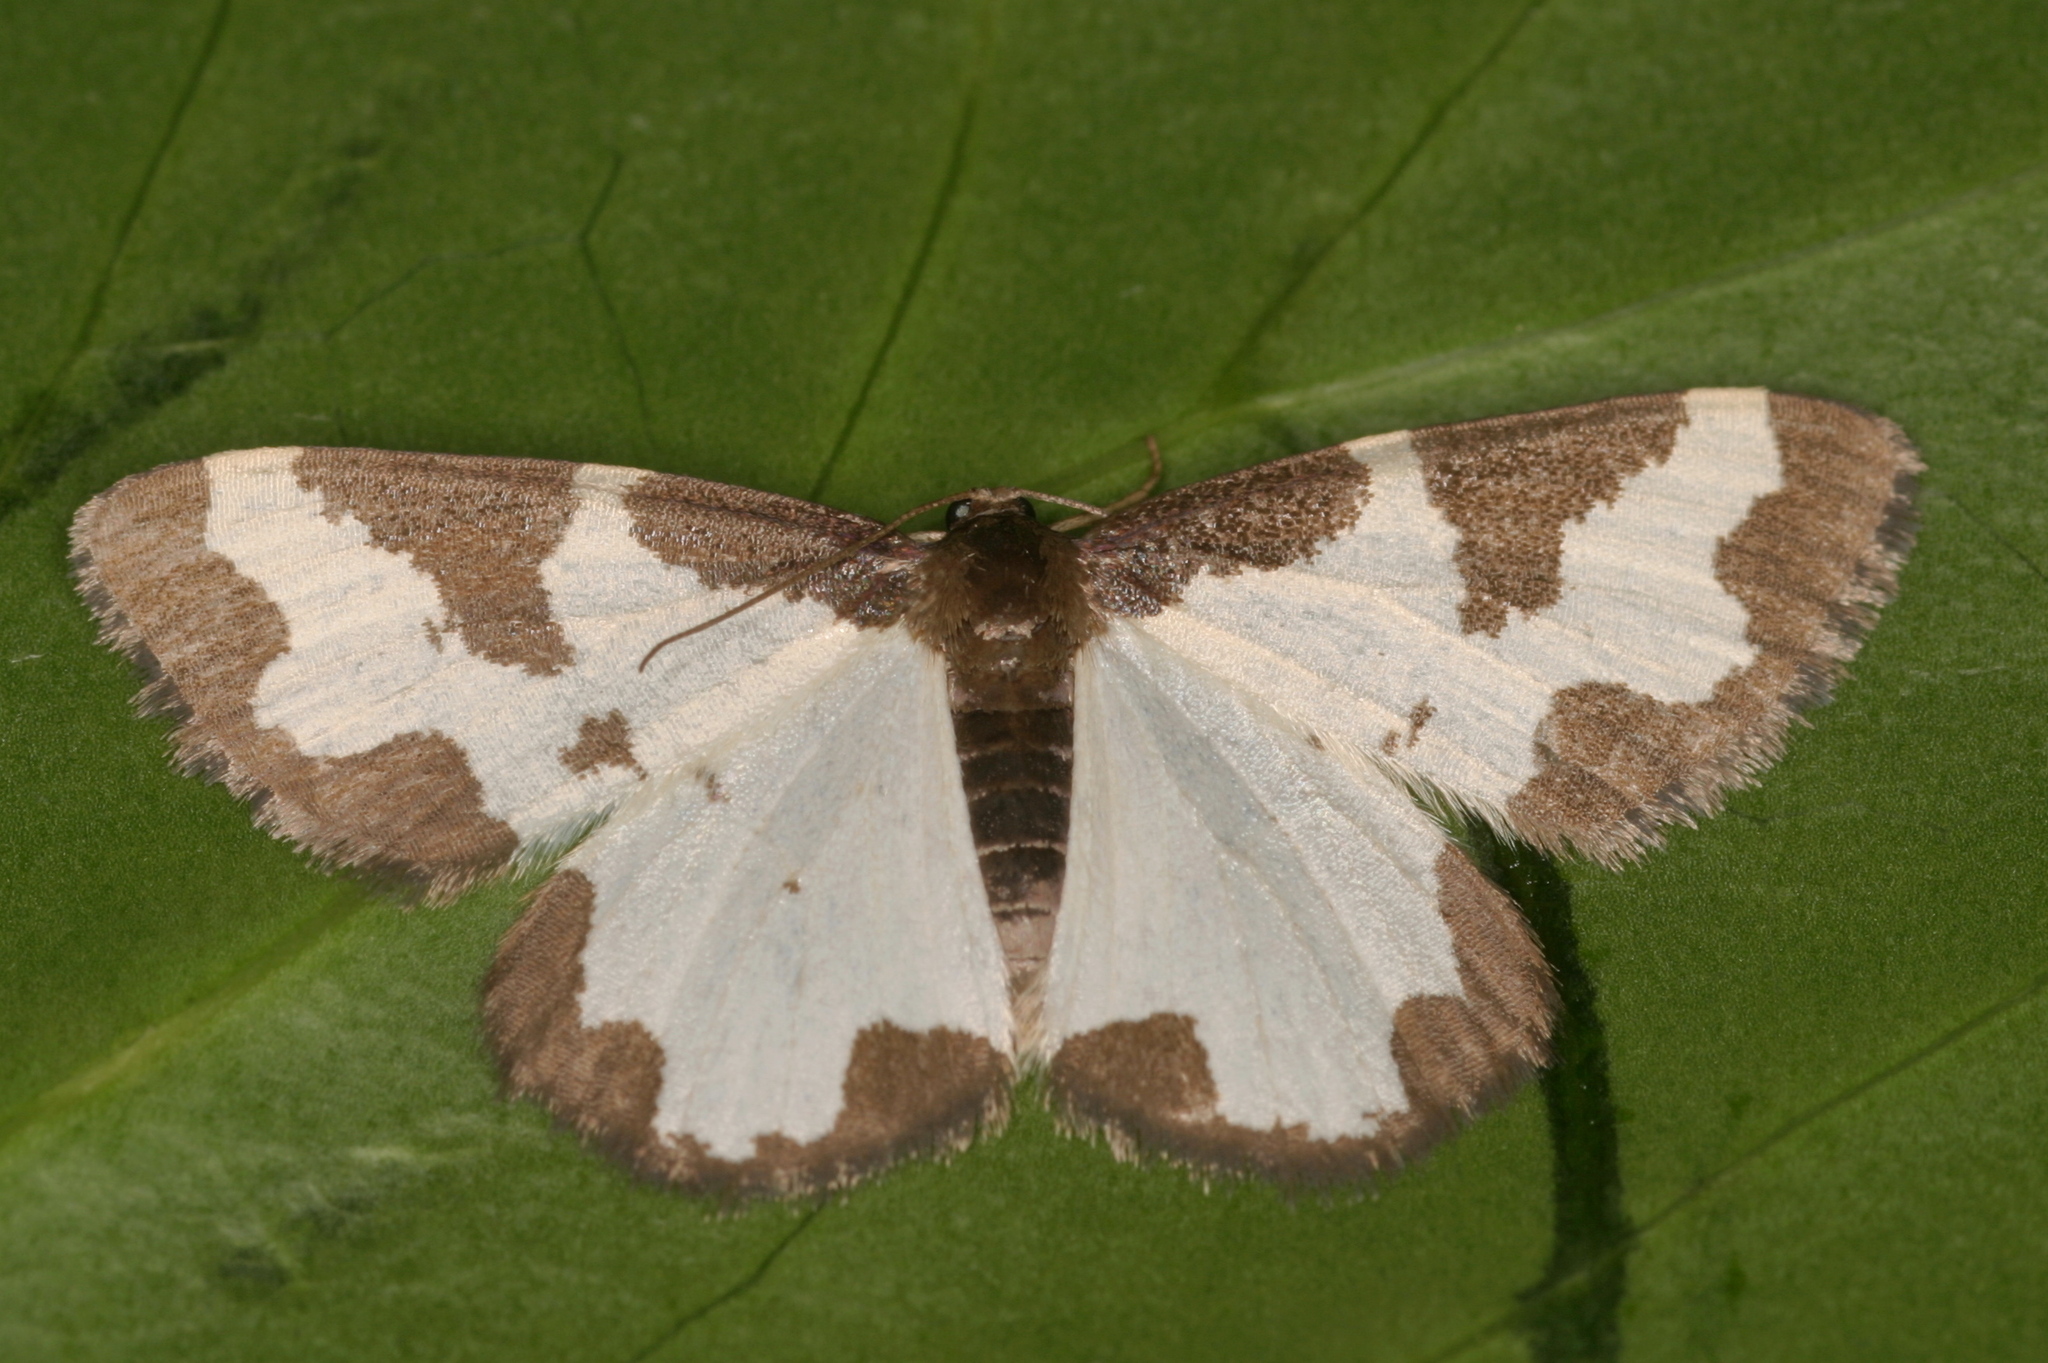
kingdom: Animalia
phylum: Arthropoda
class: Insecta
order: Lepidoptera
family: Geometridae
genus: Lomaspilis
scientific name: Lomaspilis marginata
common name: Clouded border
